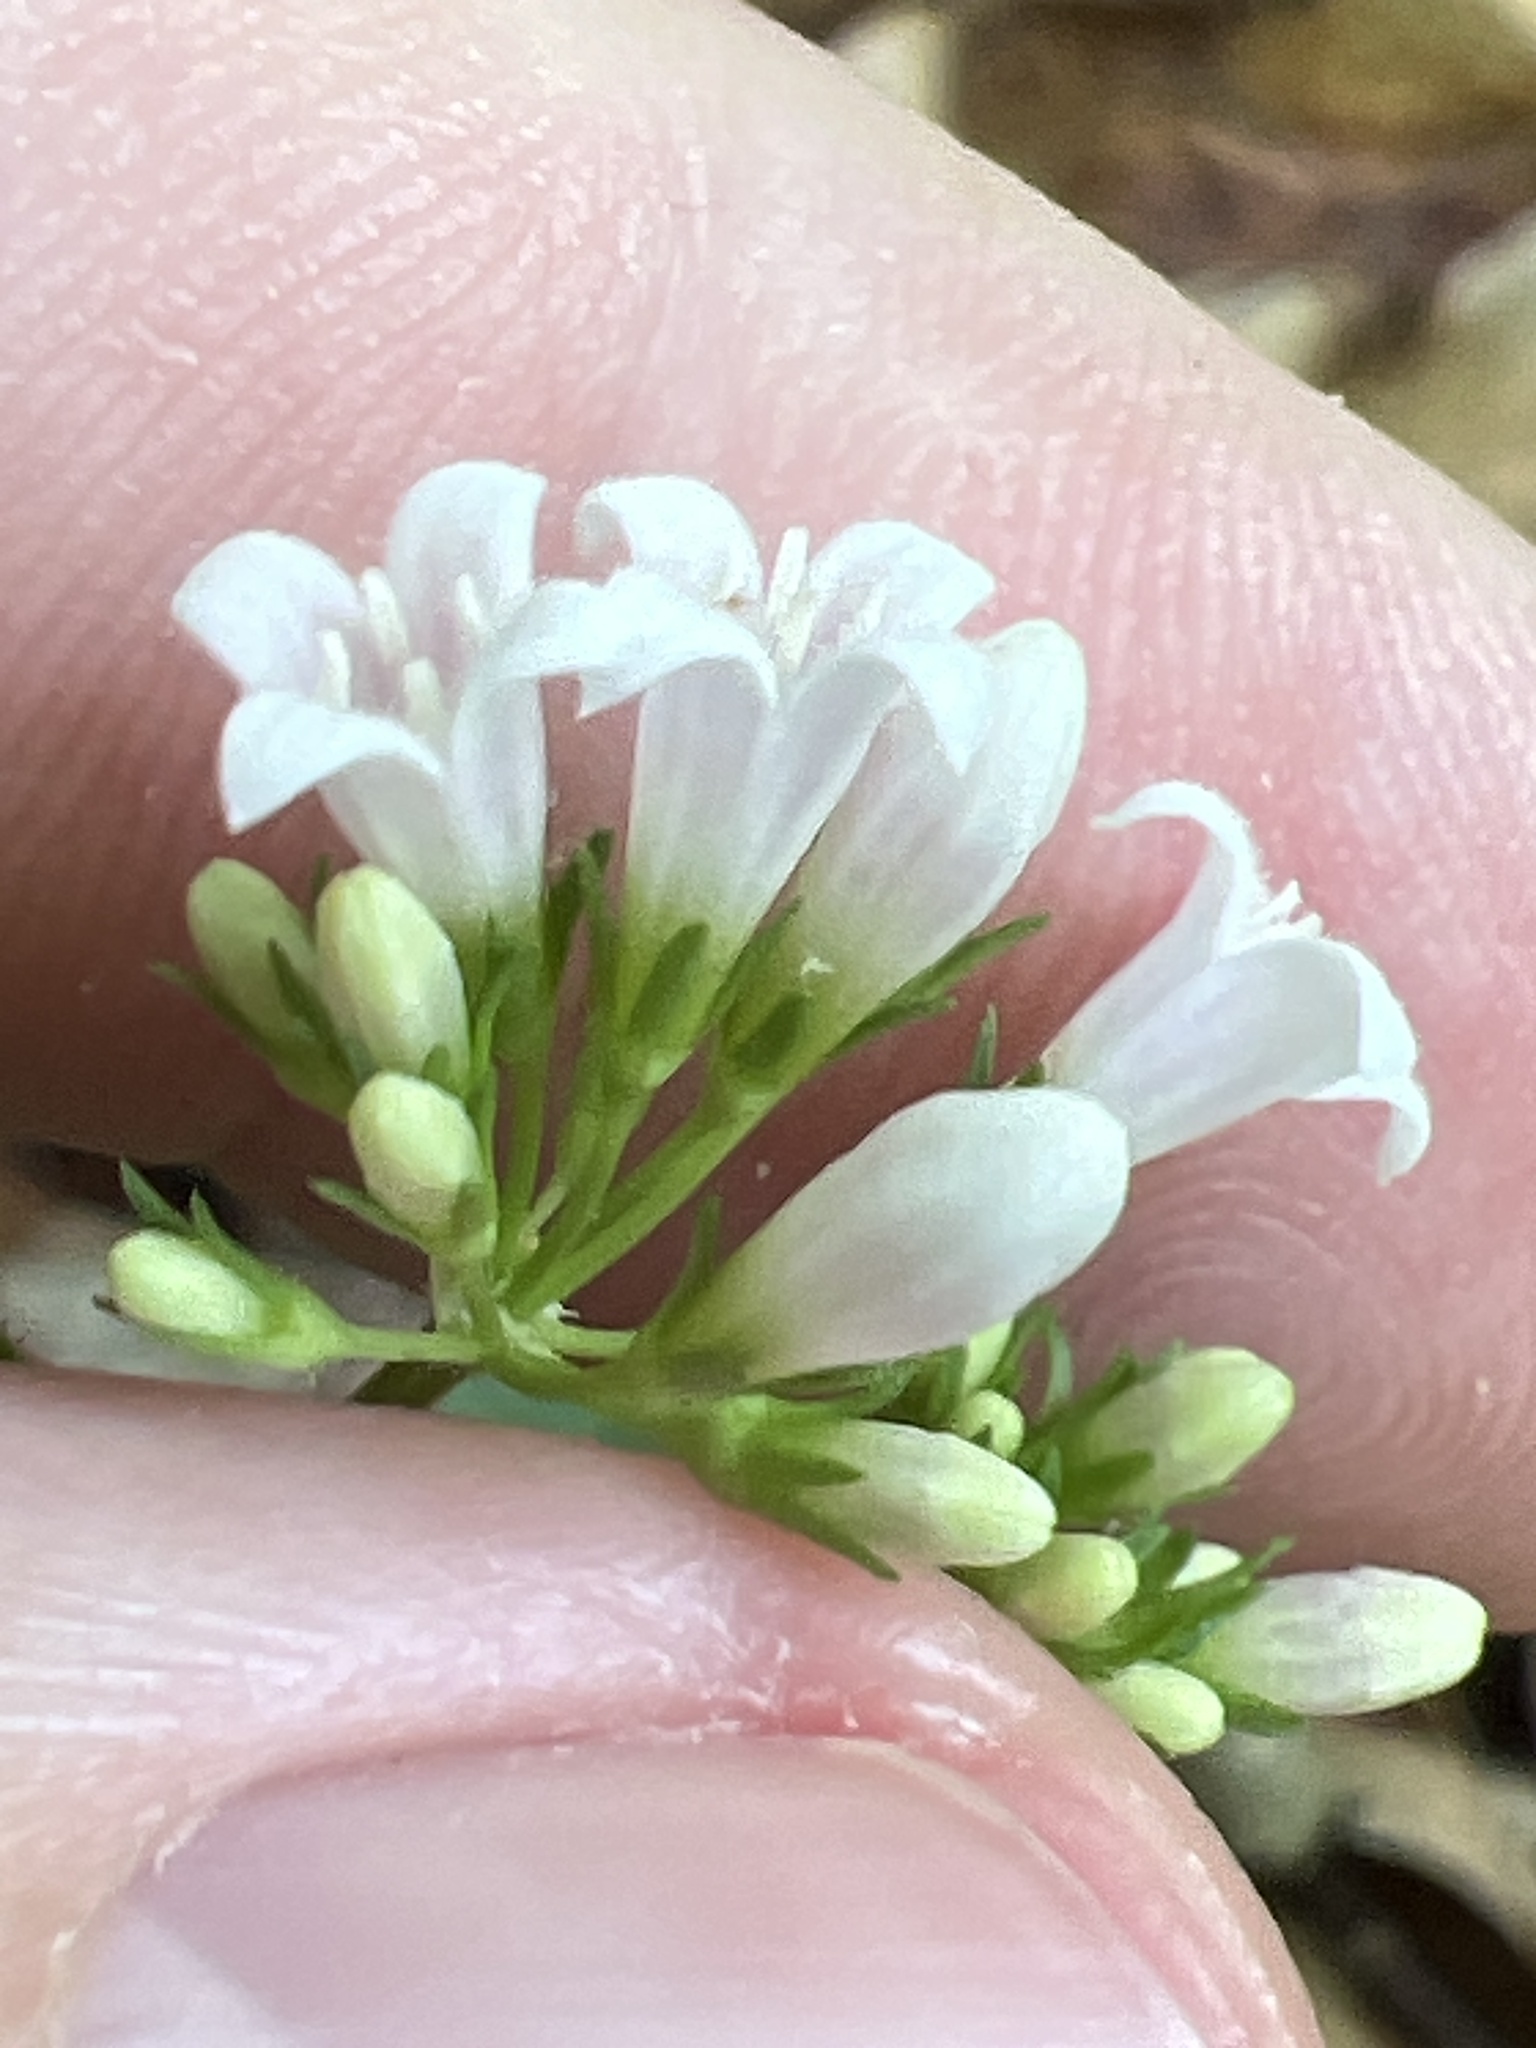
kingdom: Plantae
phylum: Tracheophyta
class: Magnoliopsida
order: Gentianales
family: Rubiaceae
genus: Houstonia
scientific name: Houstonia purpurea
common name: Summer bluet
